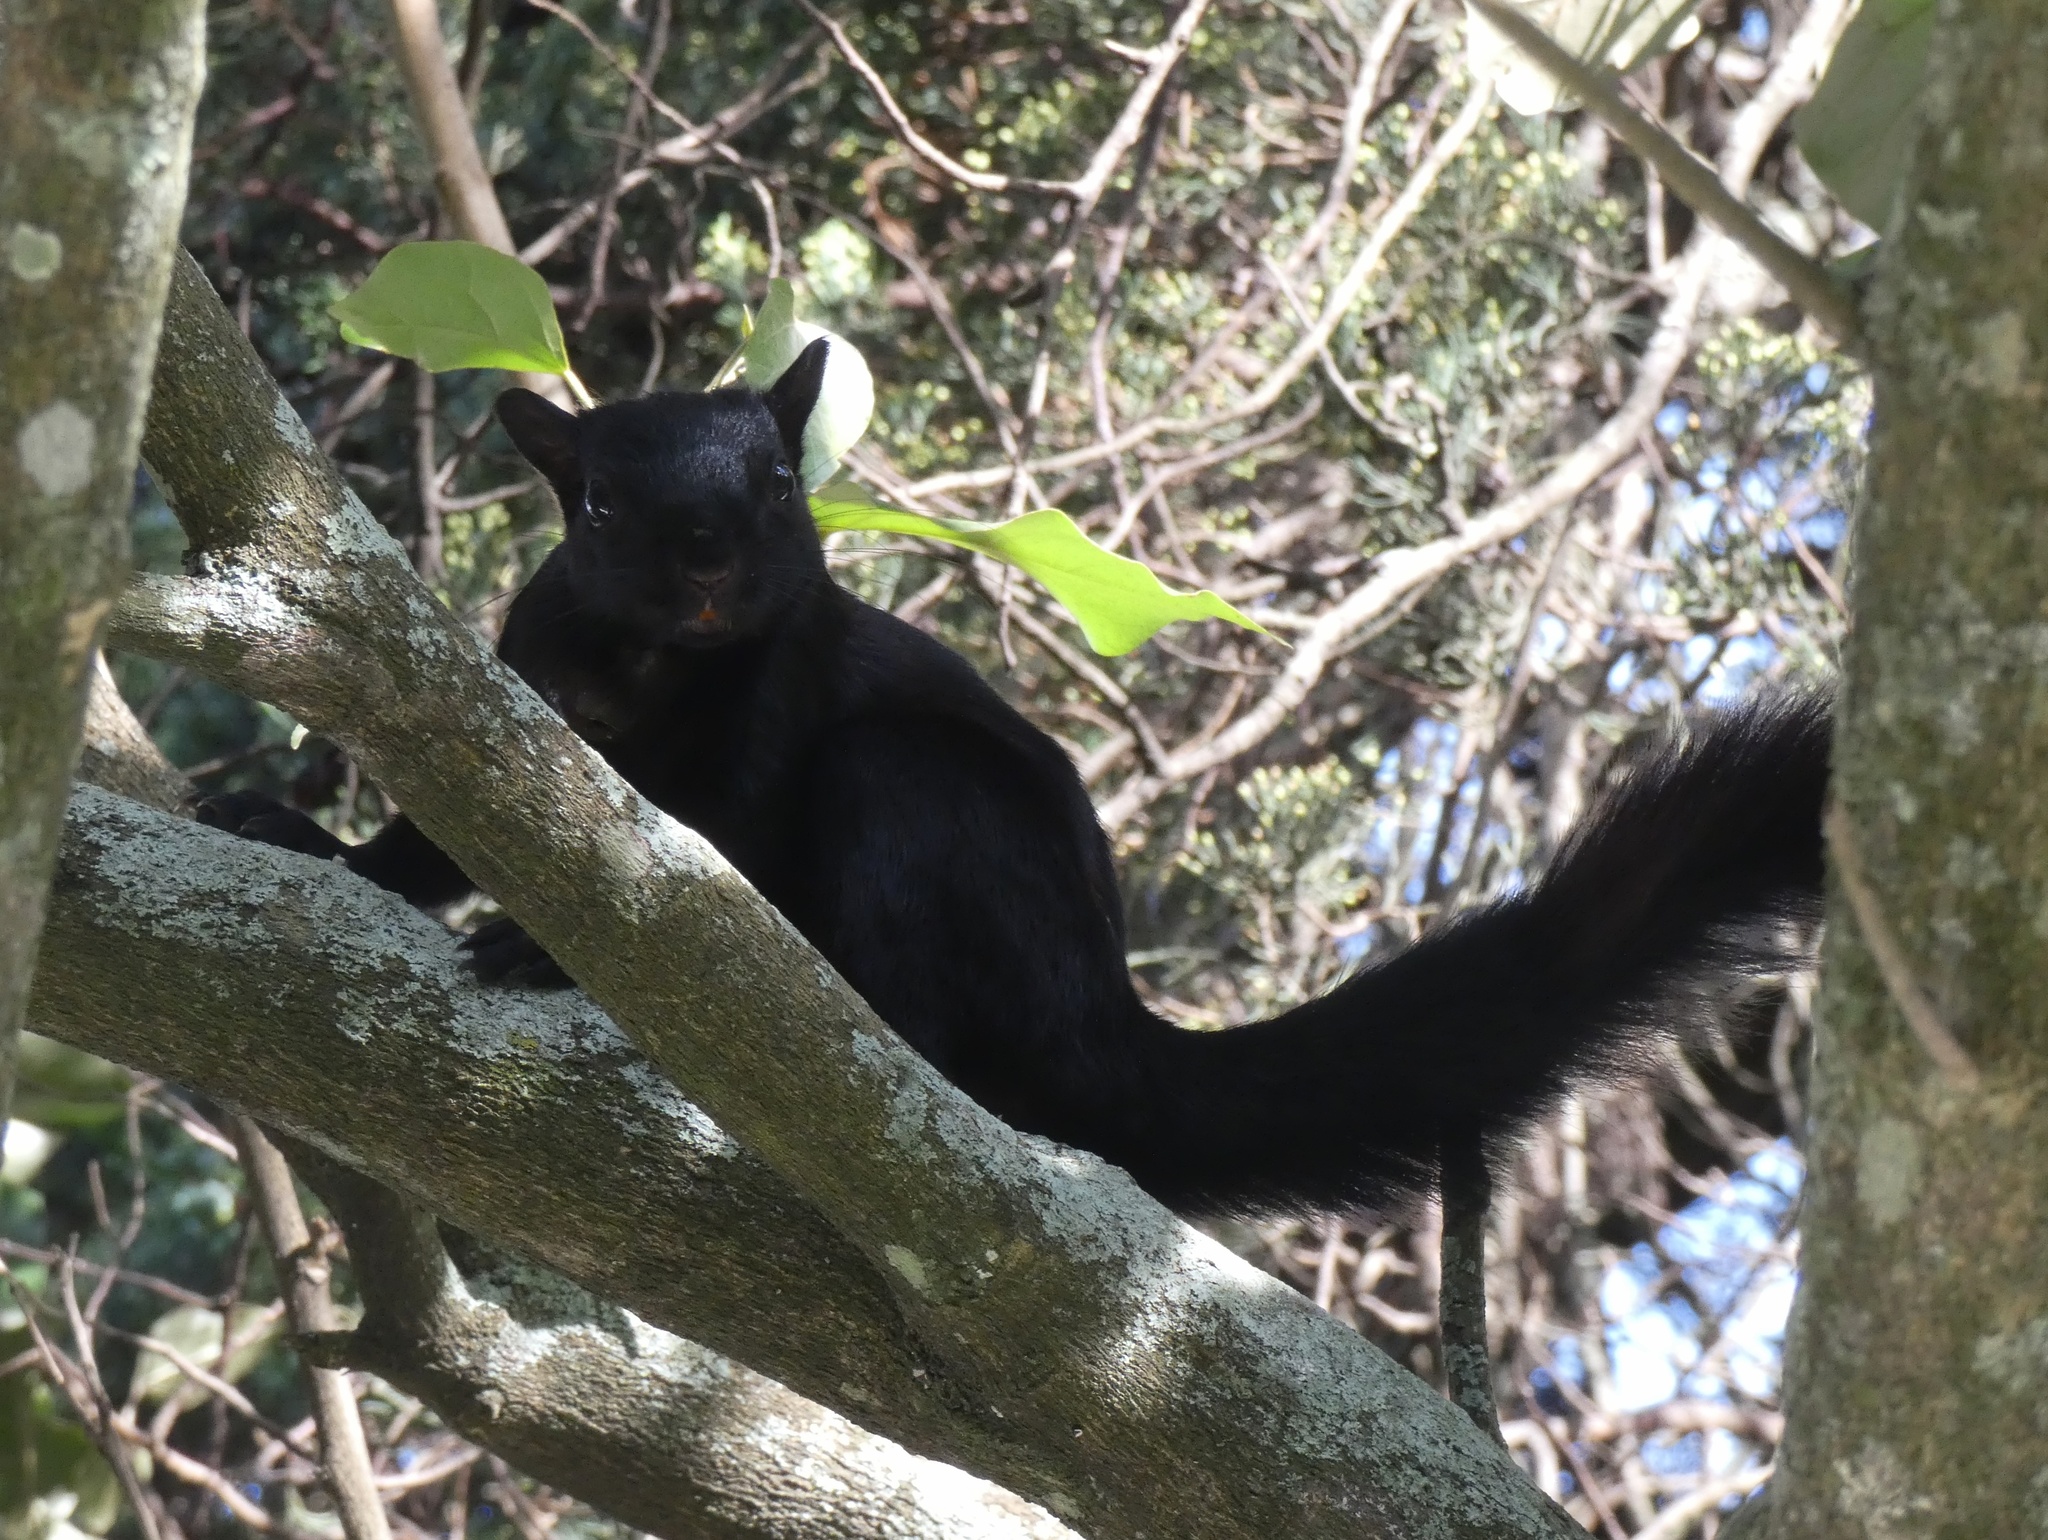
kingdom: Animalia
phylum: Chordata
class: Mammalia
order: Rodentia
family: Sciuridae
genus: Sciurus
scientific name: Sciurus variegatoides
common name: Variegated squirrel
